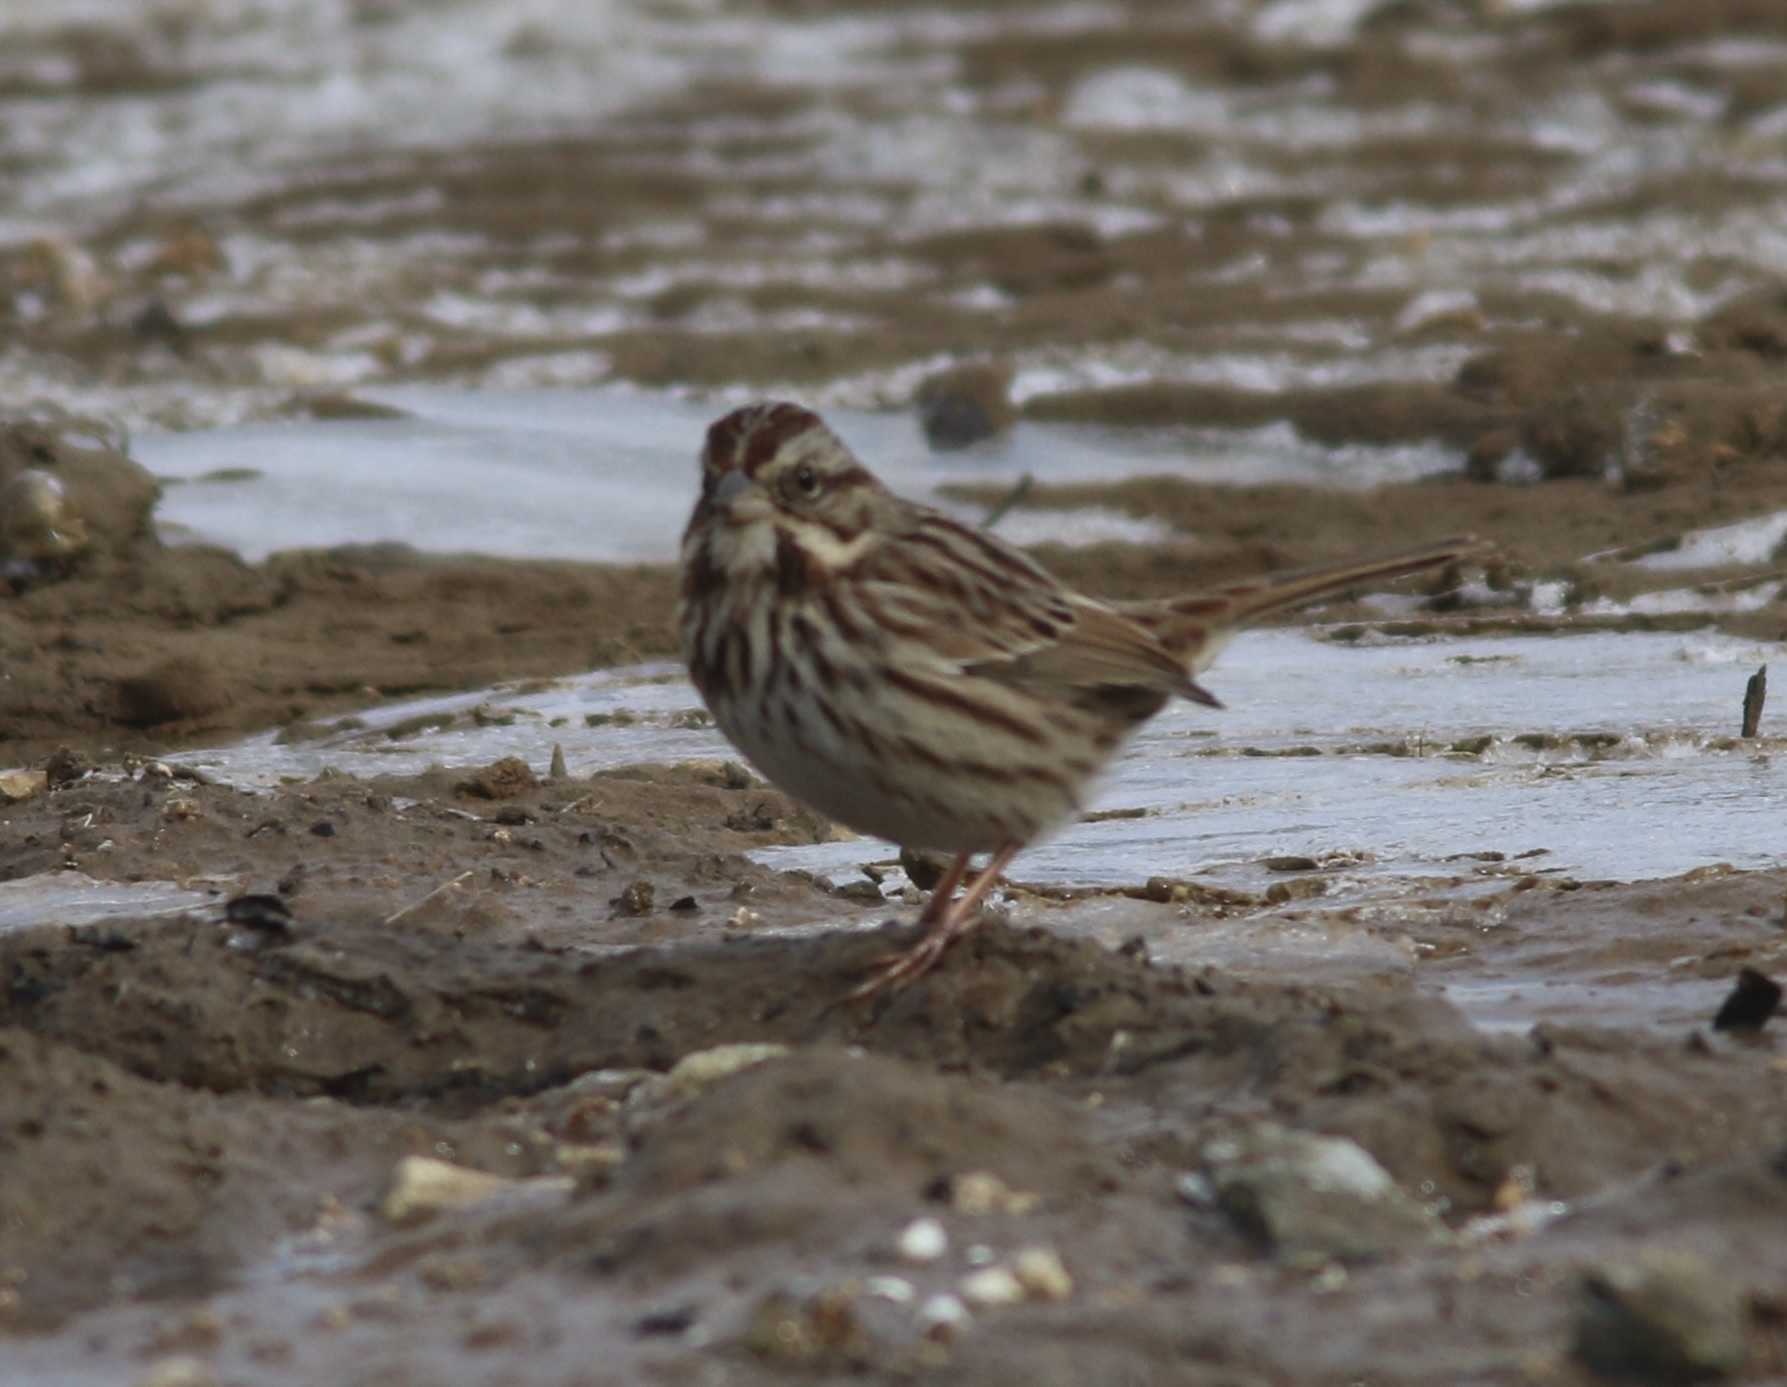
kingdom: Animalia
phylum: Chordata
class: Aves
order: Passeriformes
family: Passerellidae
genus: Melospiza
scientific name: Melospiza melodia
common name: Song sparrow
